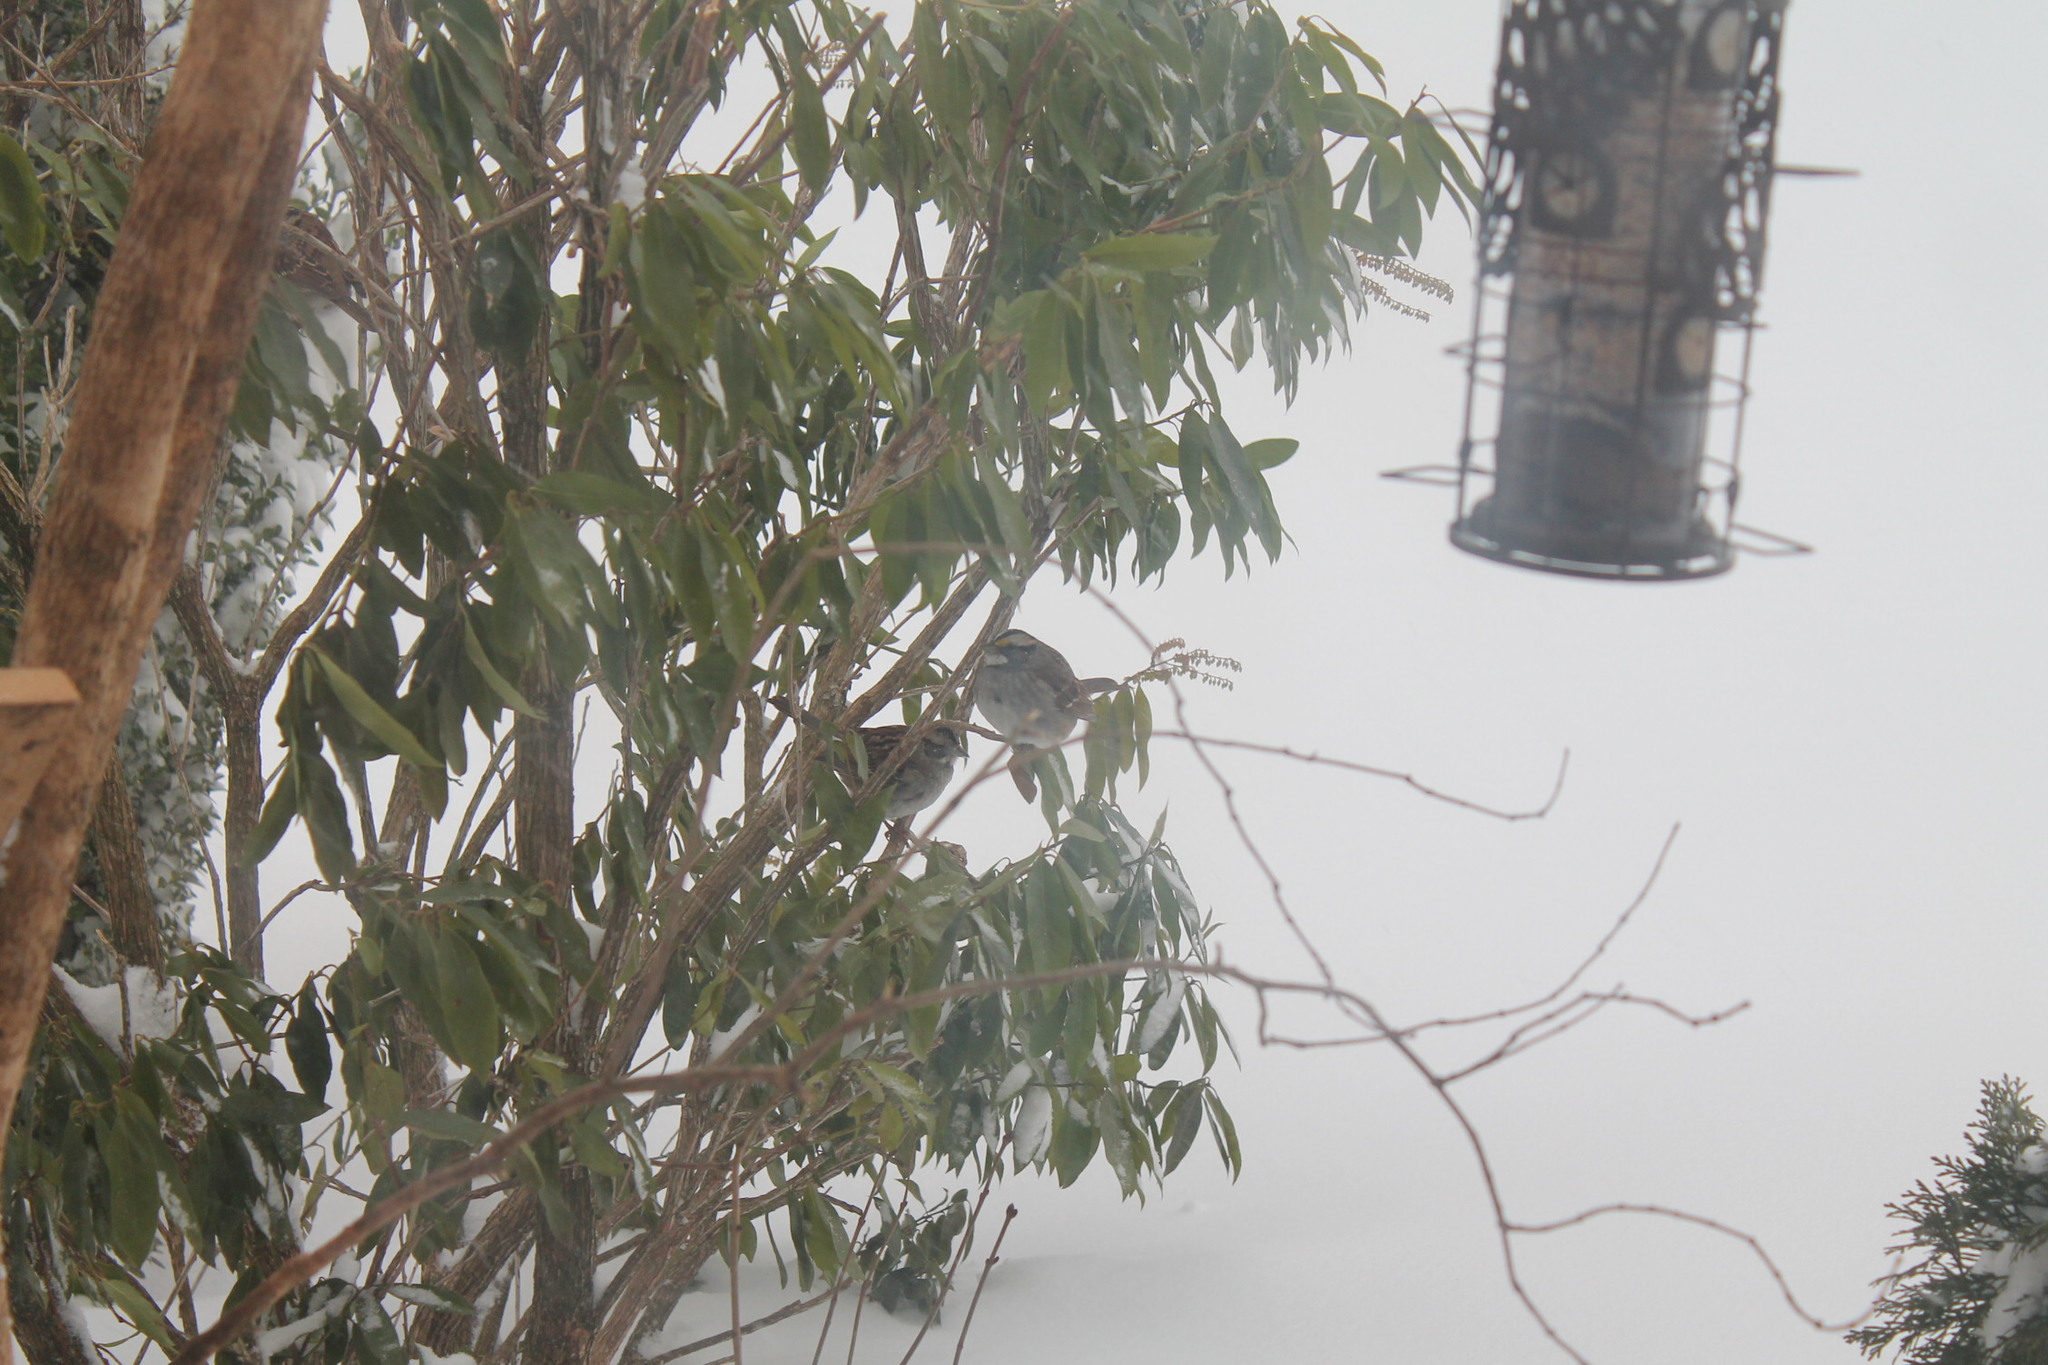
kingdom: Animalia
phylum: Chordata
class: Aves
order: Passeriformes
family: Passerellidae
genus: Zonotrichia
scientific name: Zonotrichia albicollis
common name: White-throated sparrow
